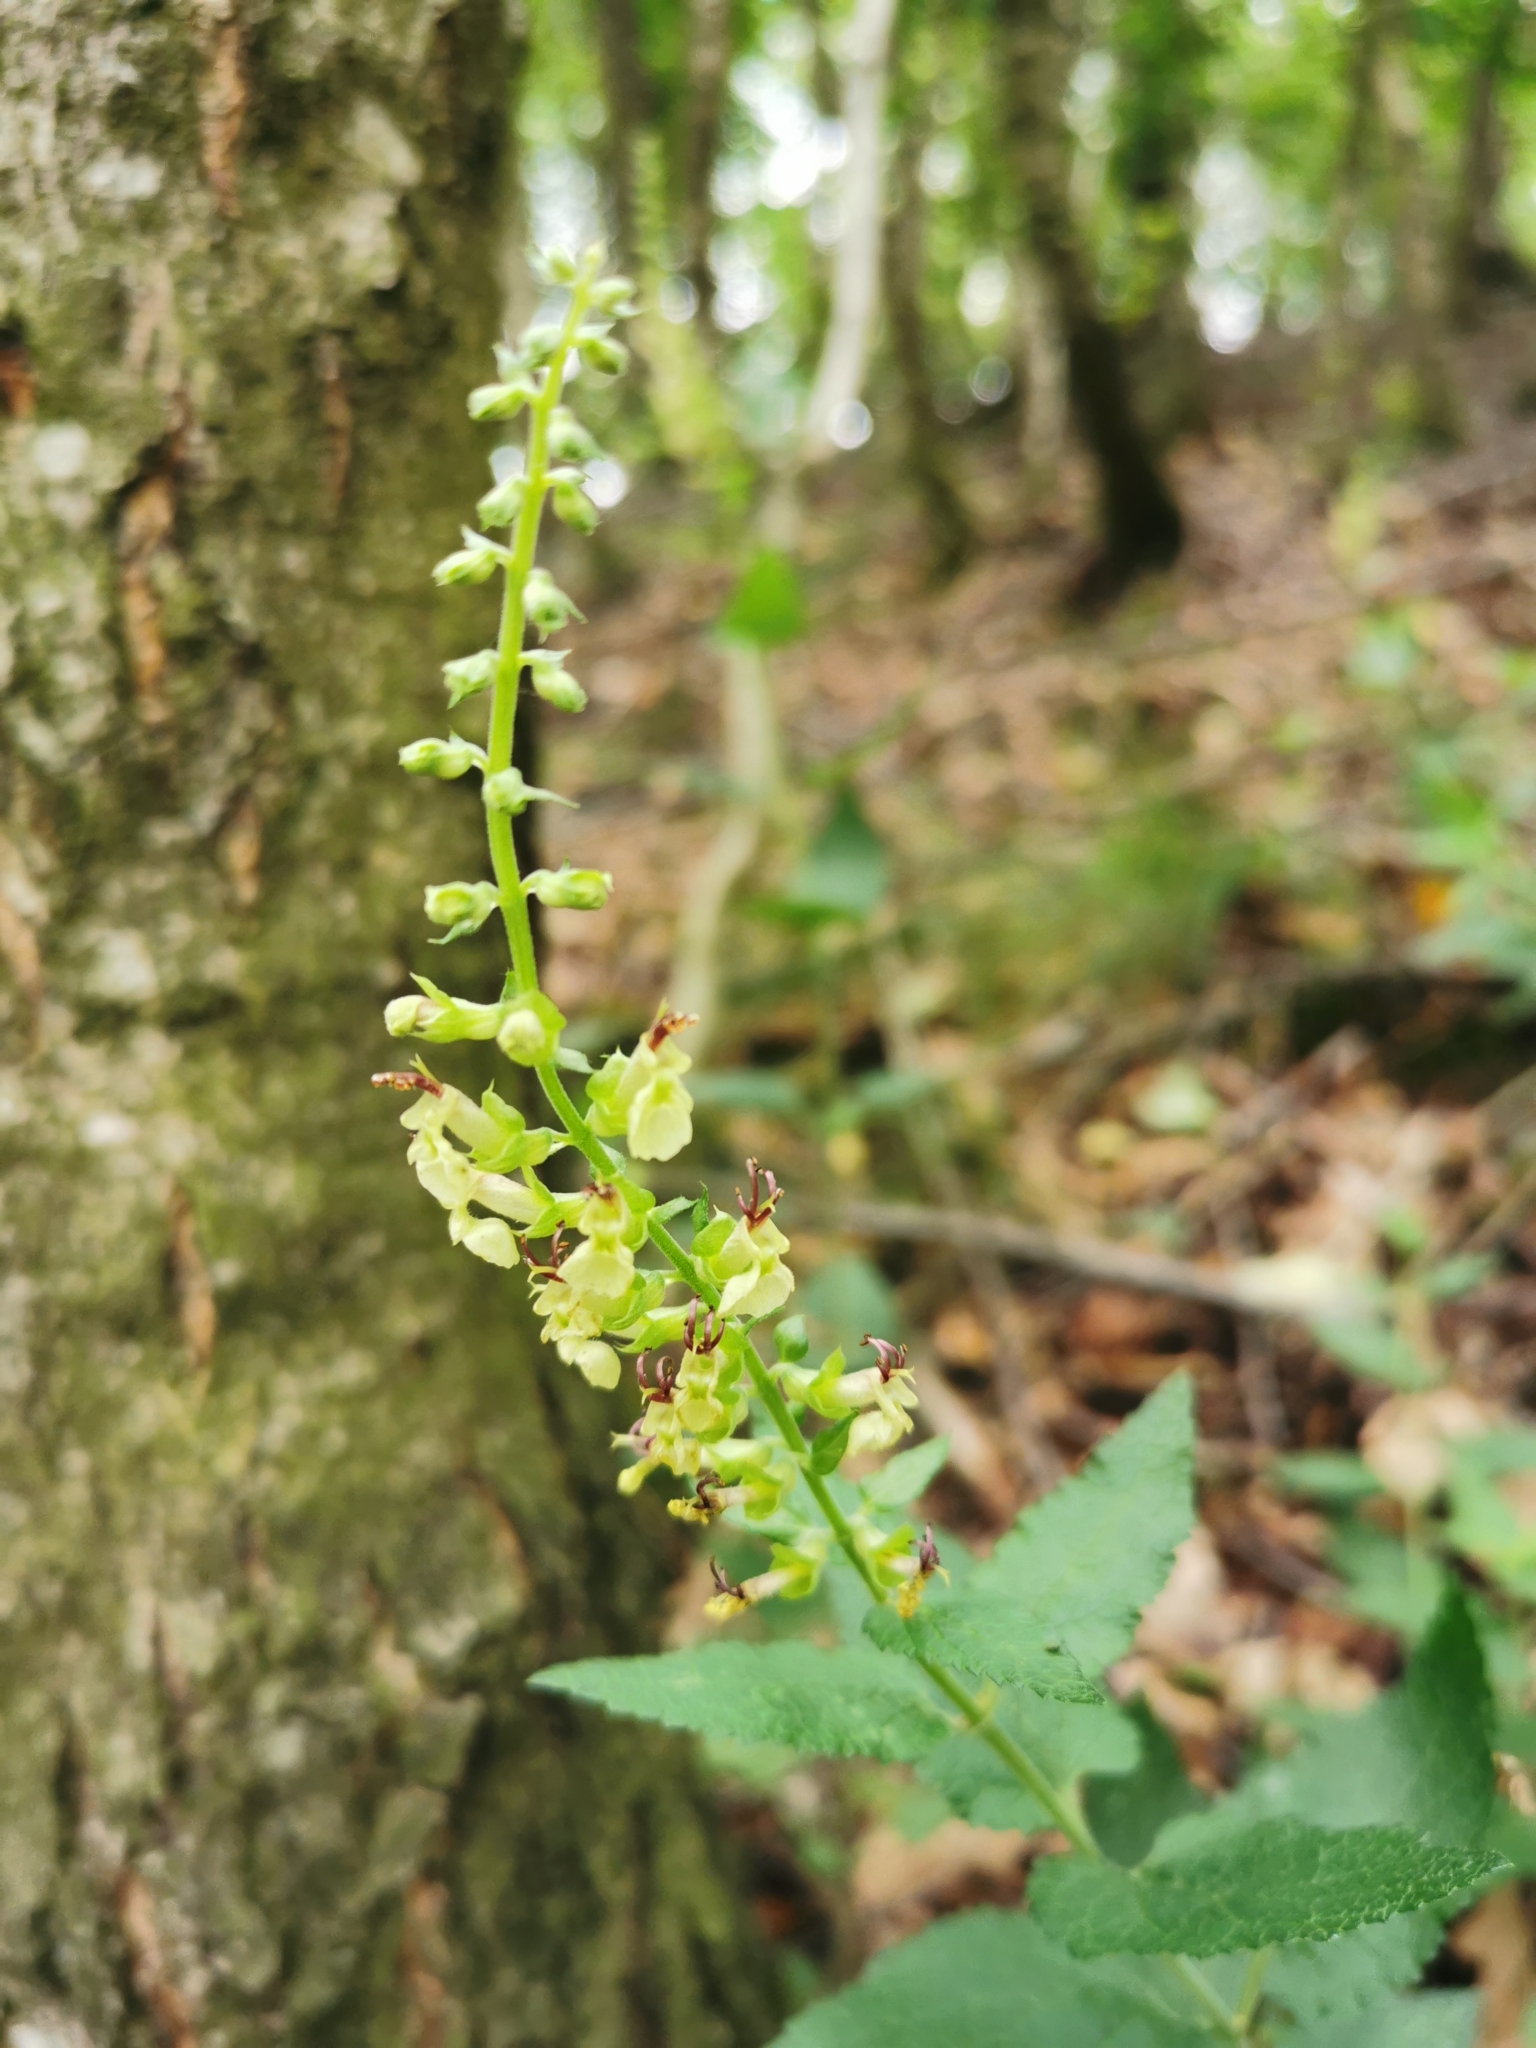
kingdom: Plantae
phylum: Tracheophyta
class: Magnoliopsida
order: Lamiales
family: Lamiaceae
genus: Teucrium
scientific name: Teucrium scorodonia
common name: Woodland germander
